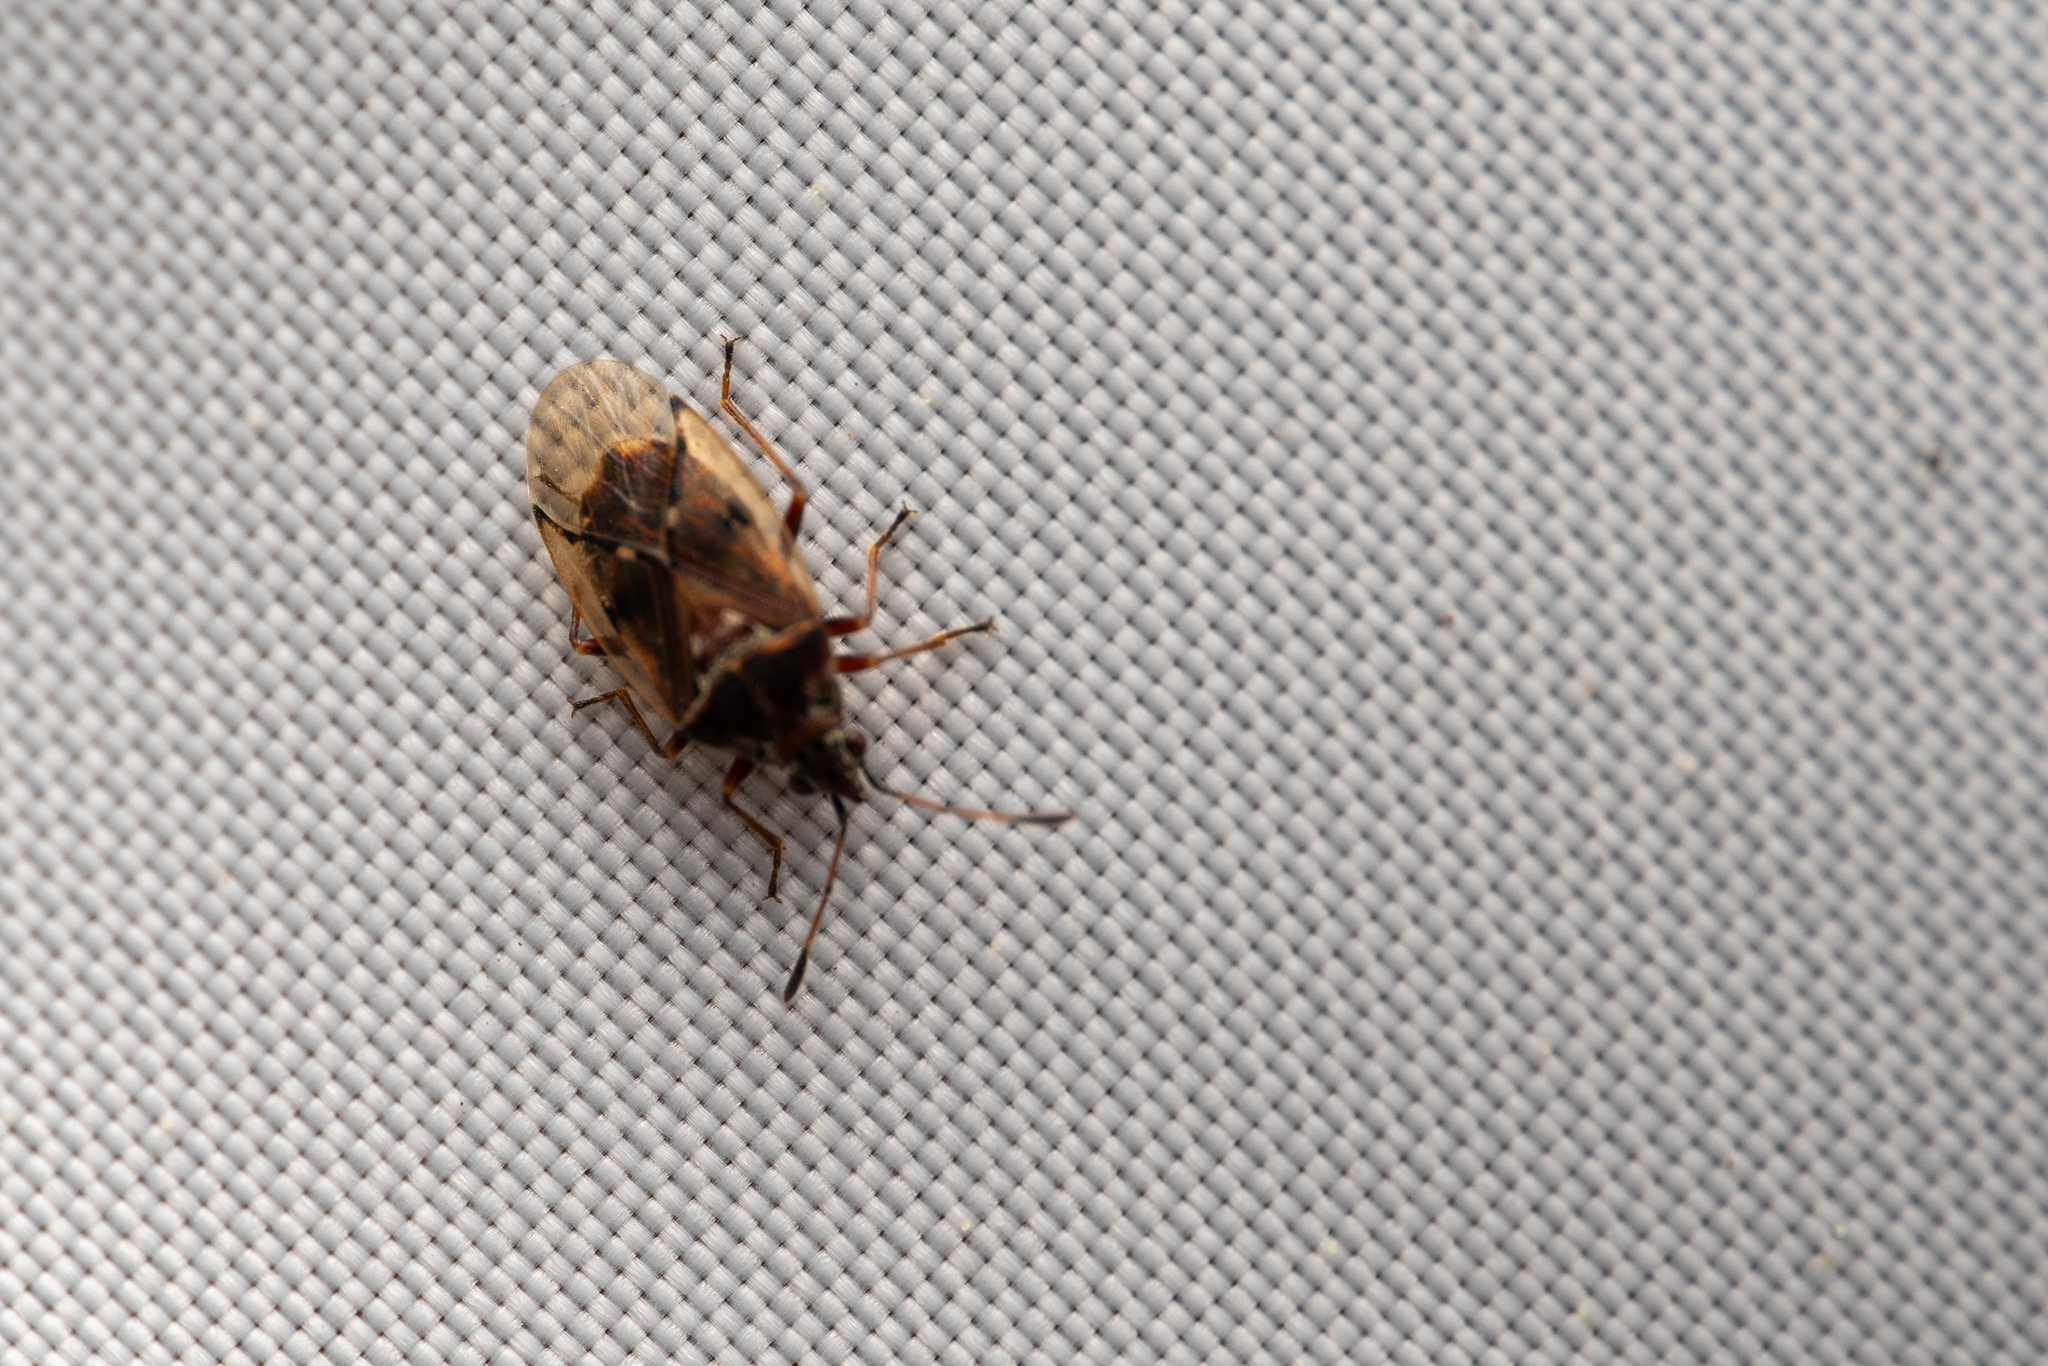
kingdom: Animalia
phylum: Arthropoda
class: Insecta
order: Hemiptera
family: Lygaeidae
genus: Kleidocerys
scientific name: Kleidocerys resedae
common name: Birch catkin bug
